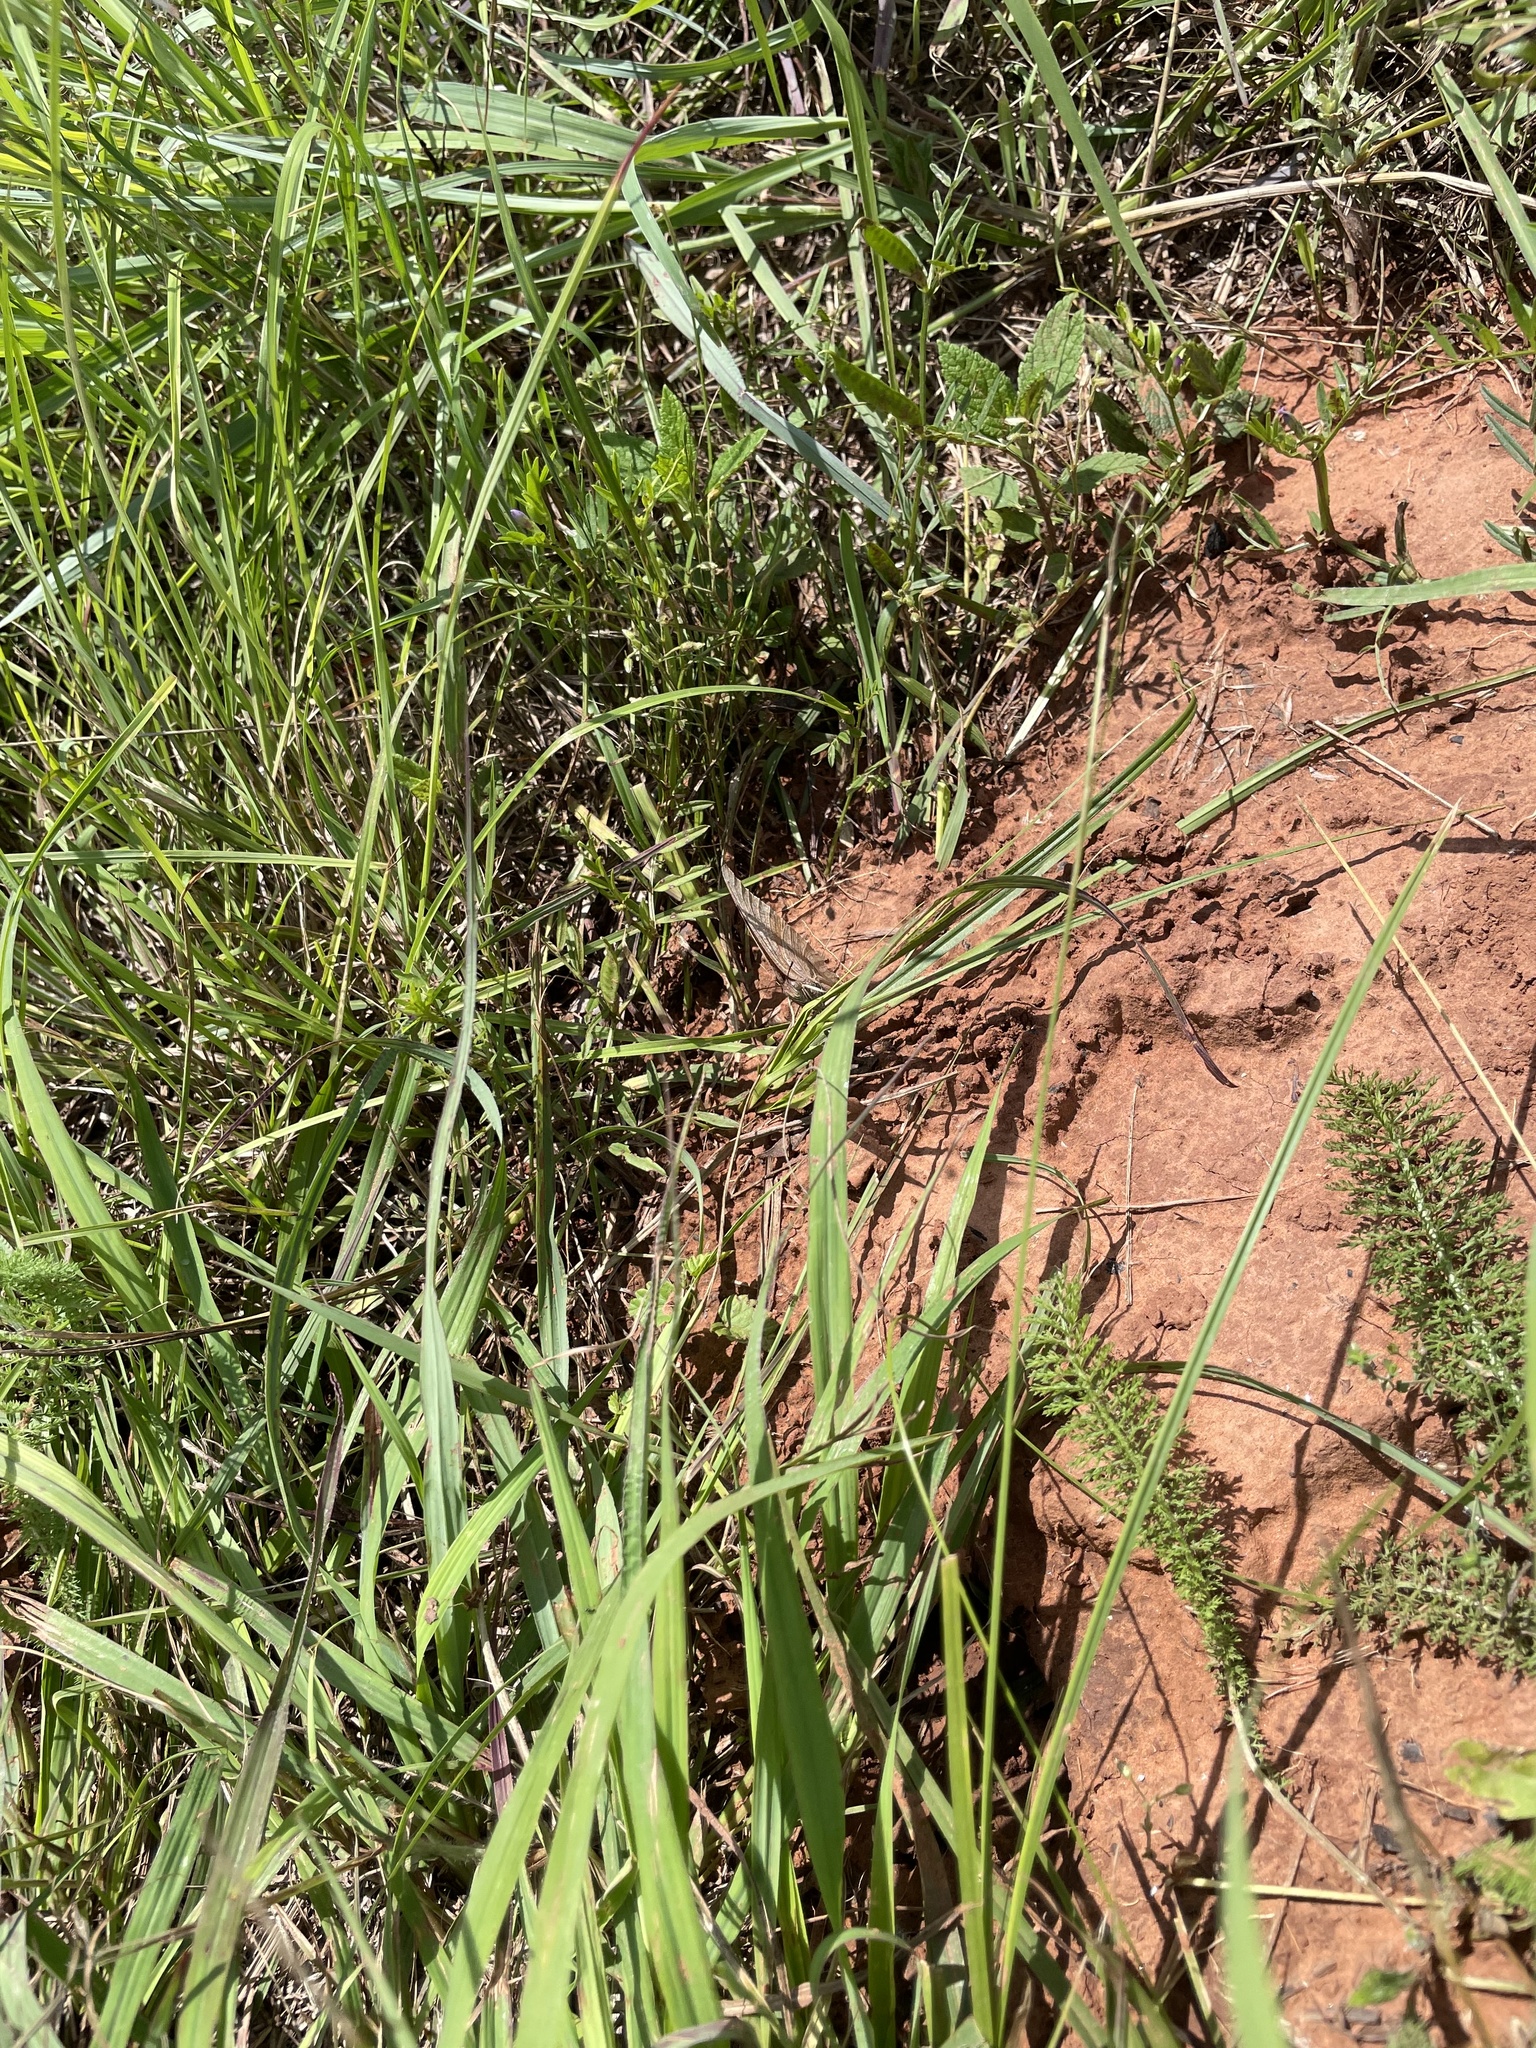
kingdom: Animalia
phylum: Arthropoda
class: Insecta
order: Lepidoptera
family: Nymphalidae
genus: Anaea
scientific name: Anaea andria
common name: Goatweed leafwing
